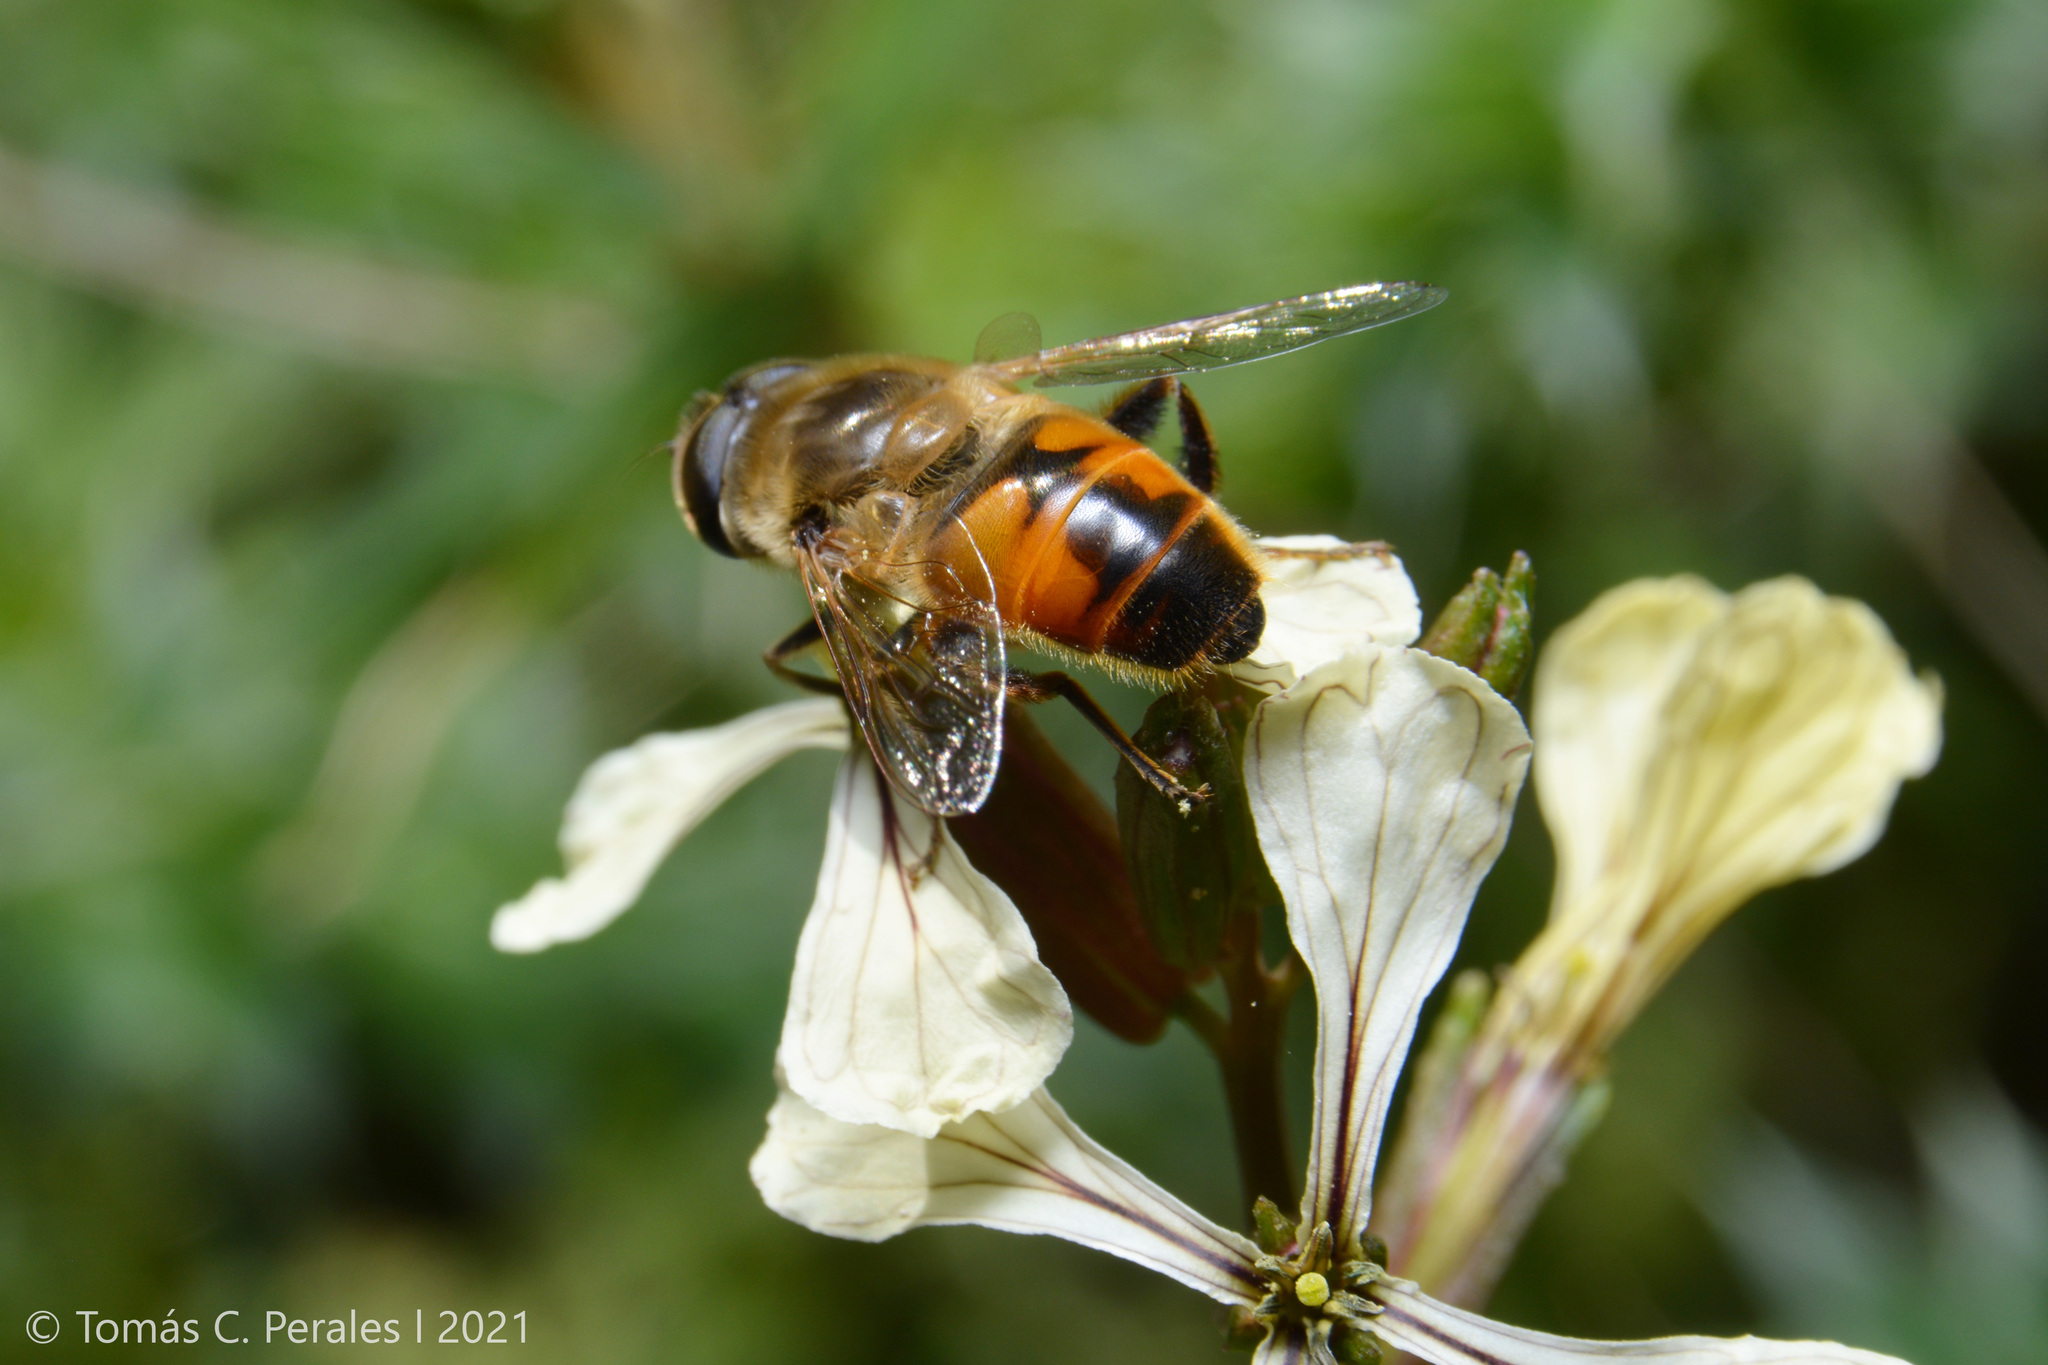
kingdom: Animalia
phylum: Arthropoda
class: Insecta
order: Diptera
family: Syrphidae
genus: Eristalis
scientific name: Eristalis tenax
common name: Drone fly
